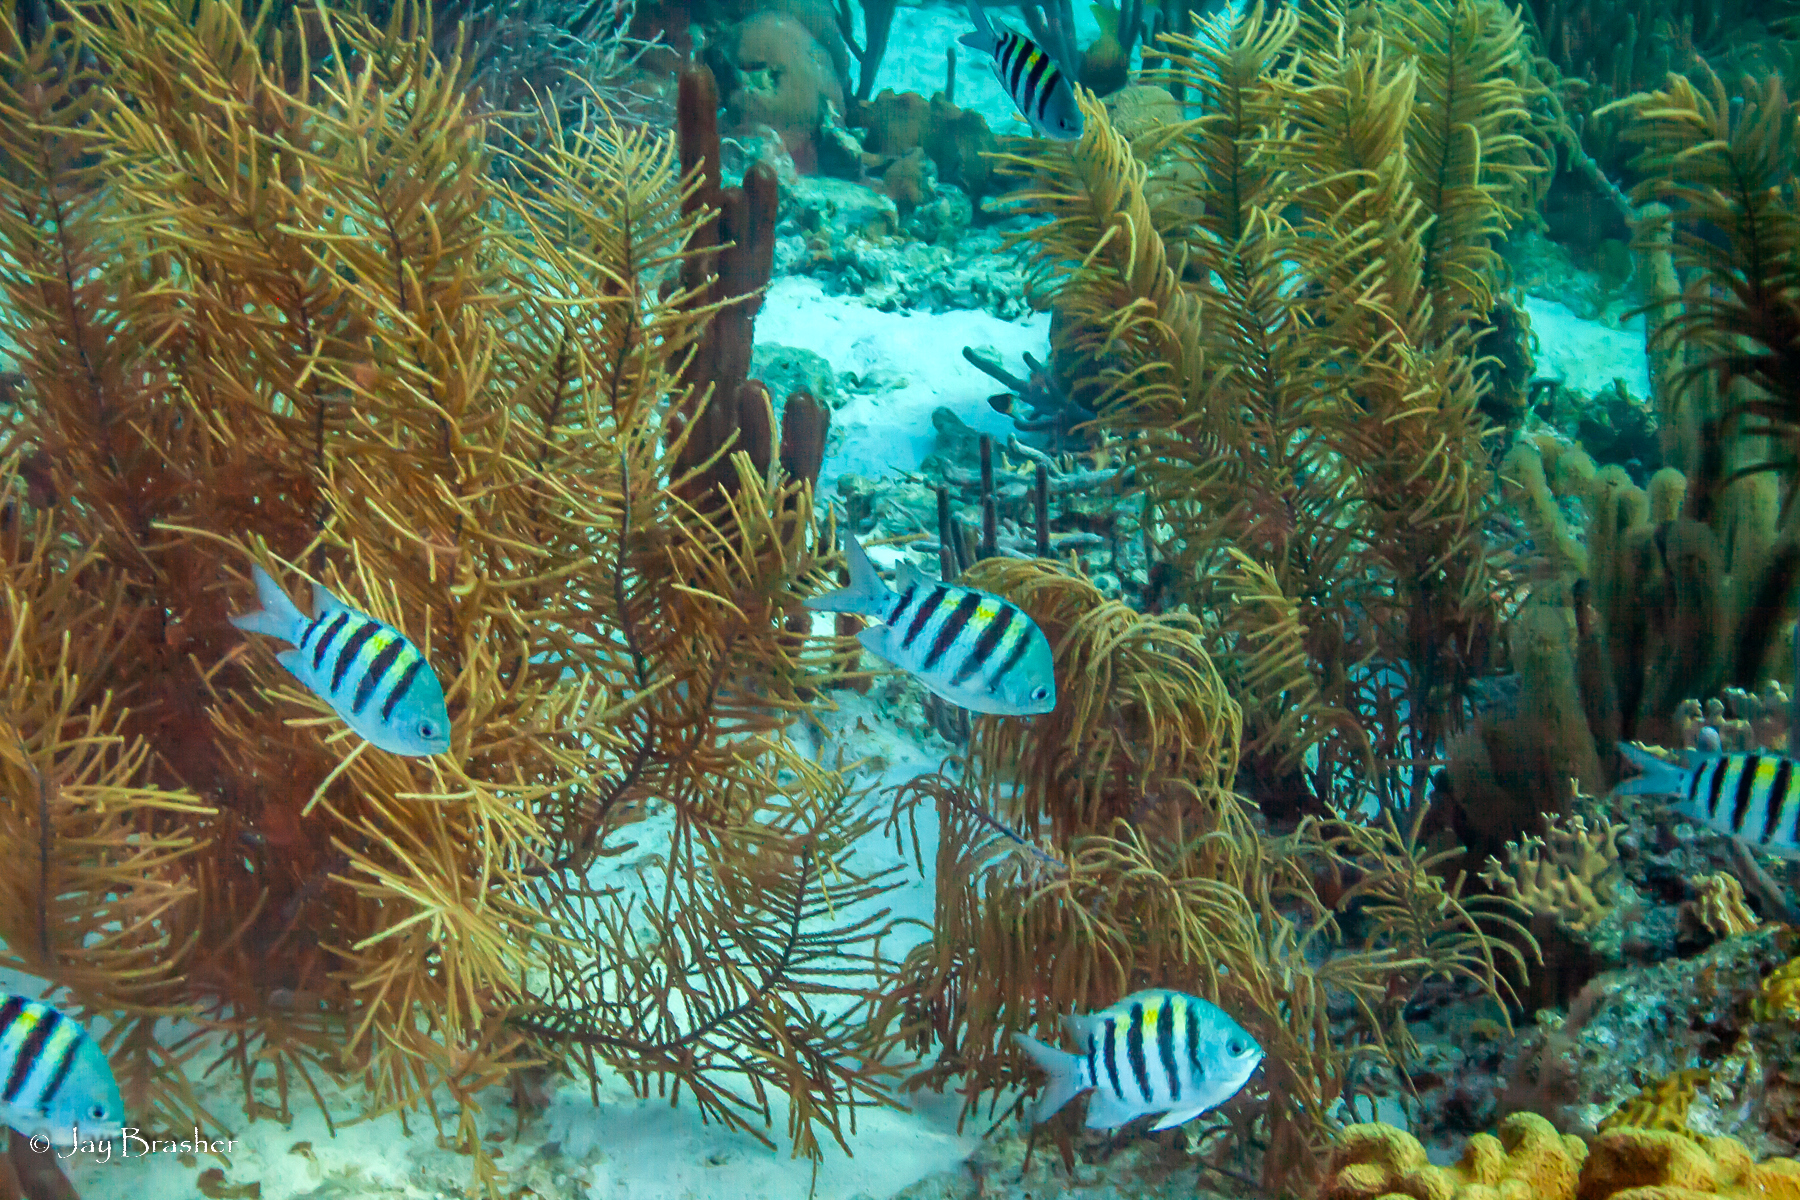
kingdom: Animalia
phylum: Chordata
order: Perciformes
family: Pomacentridae
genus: Abudefduf
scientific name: Abudefduf saxatilis
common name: Sergeant major
